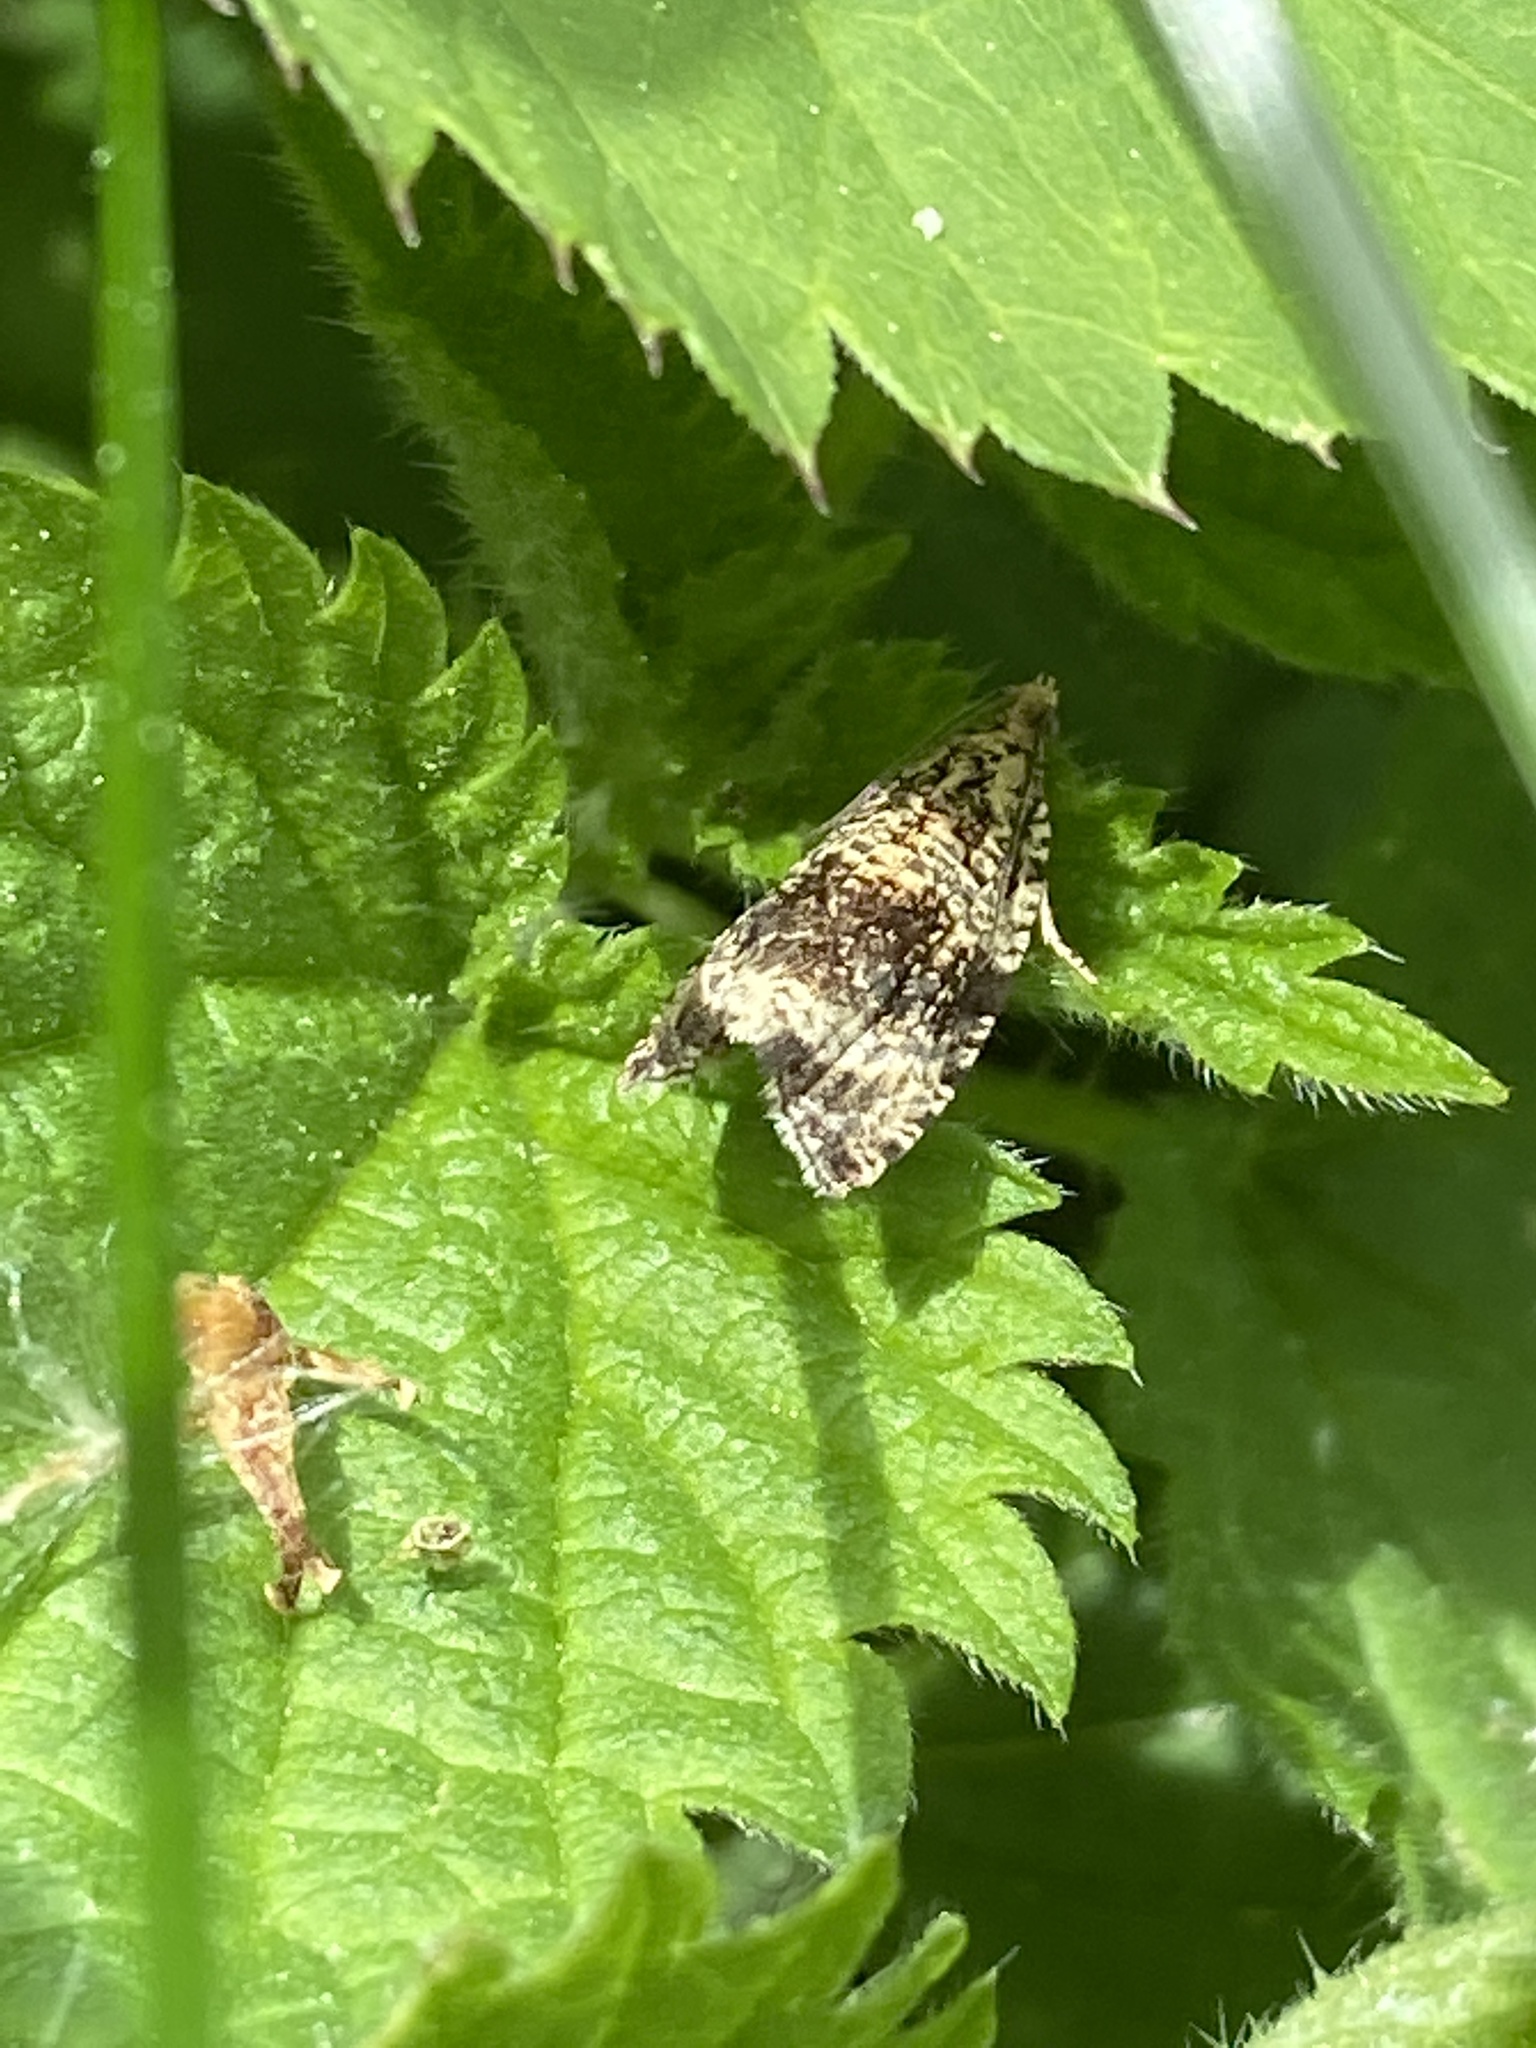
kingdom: Animalia
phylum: Arthropoda
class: Insecta
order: Lepidoptera
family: Tortricidae
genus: Syricoris
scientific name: Syricoris lacunana
